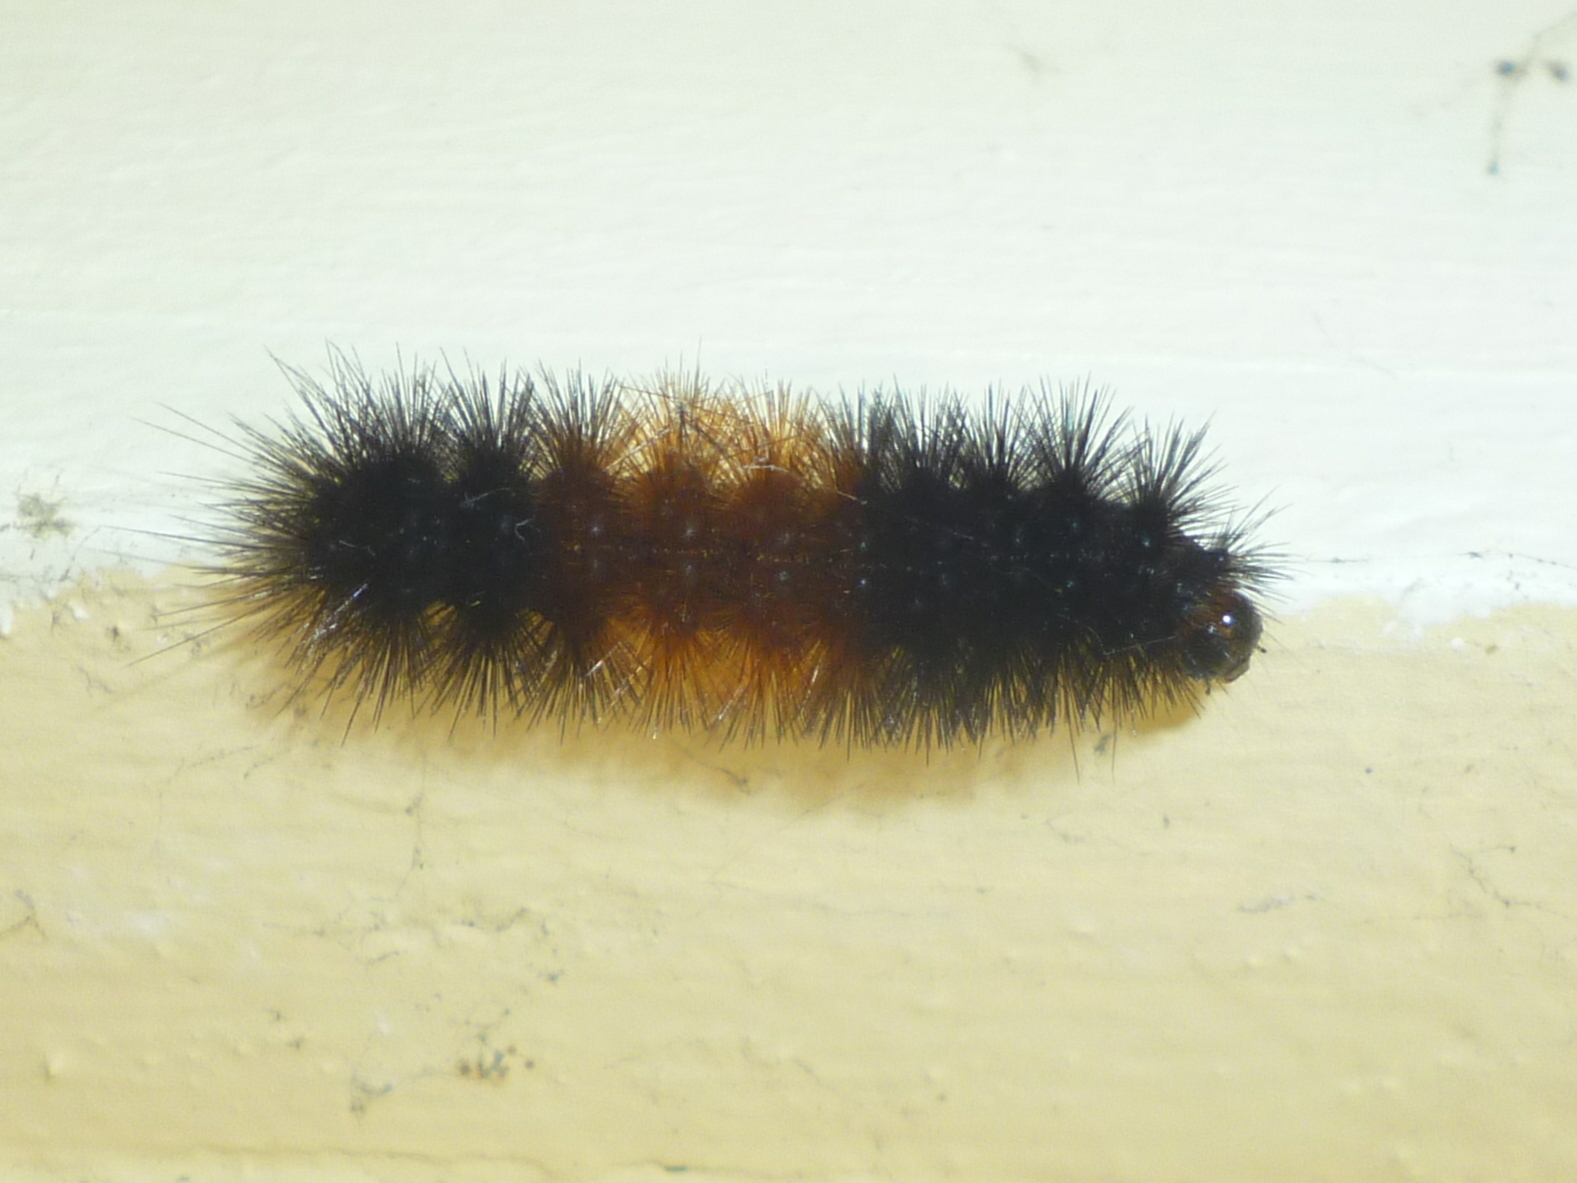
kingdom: Animalia
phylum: Arthropoda
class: Insecta
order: Lepidoptera
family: Erebidae
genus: Pyrrharctia
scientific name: Pyrrharctia isabella
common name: Isabella tiger moth
